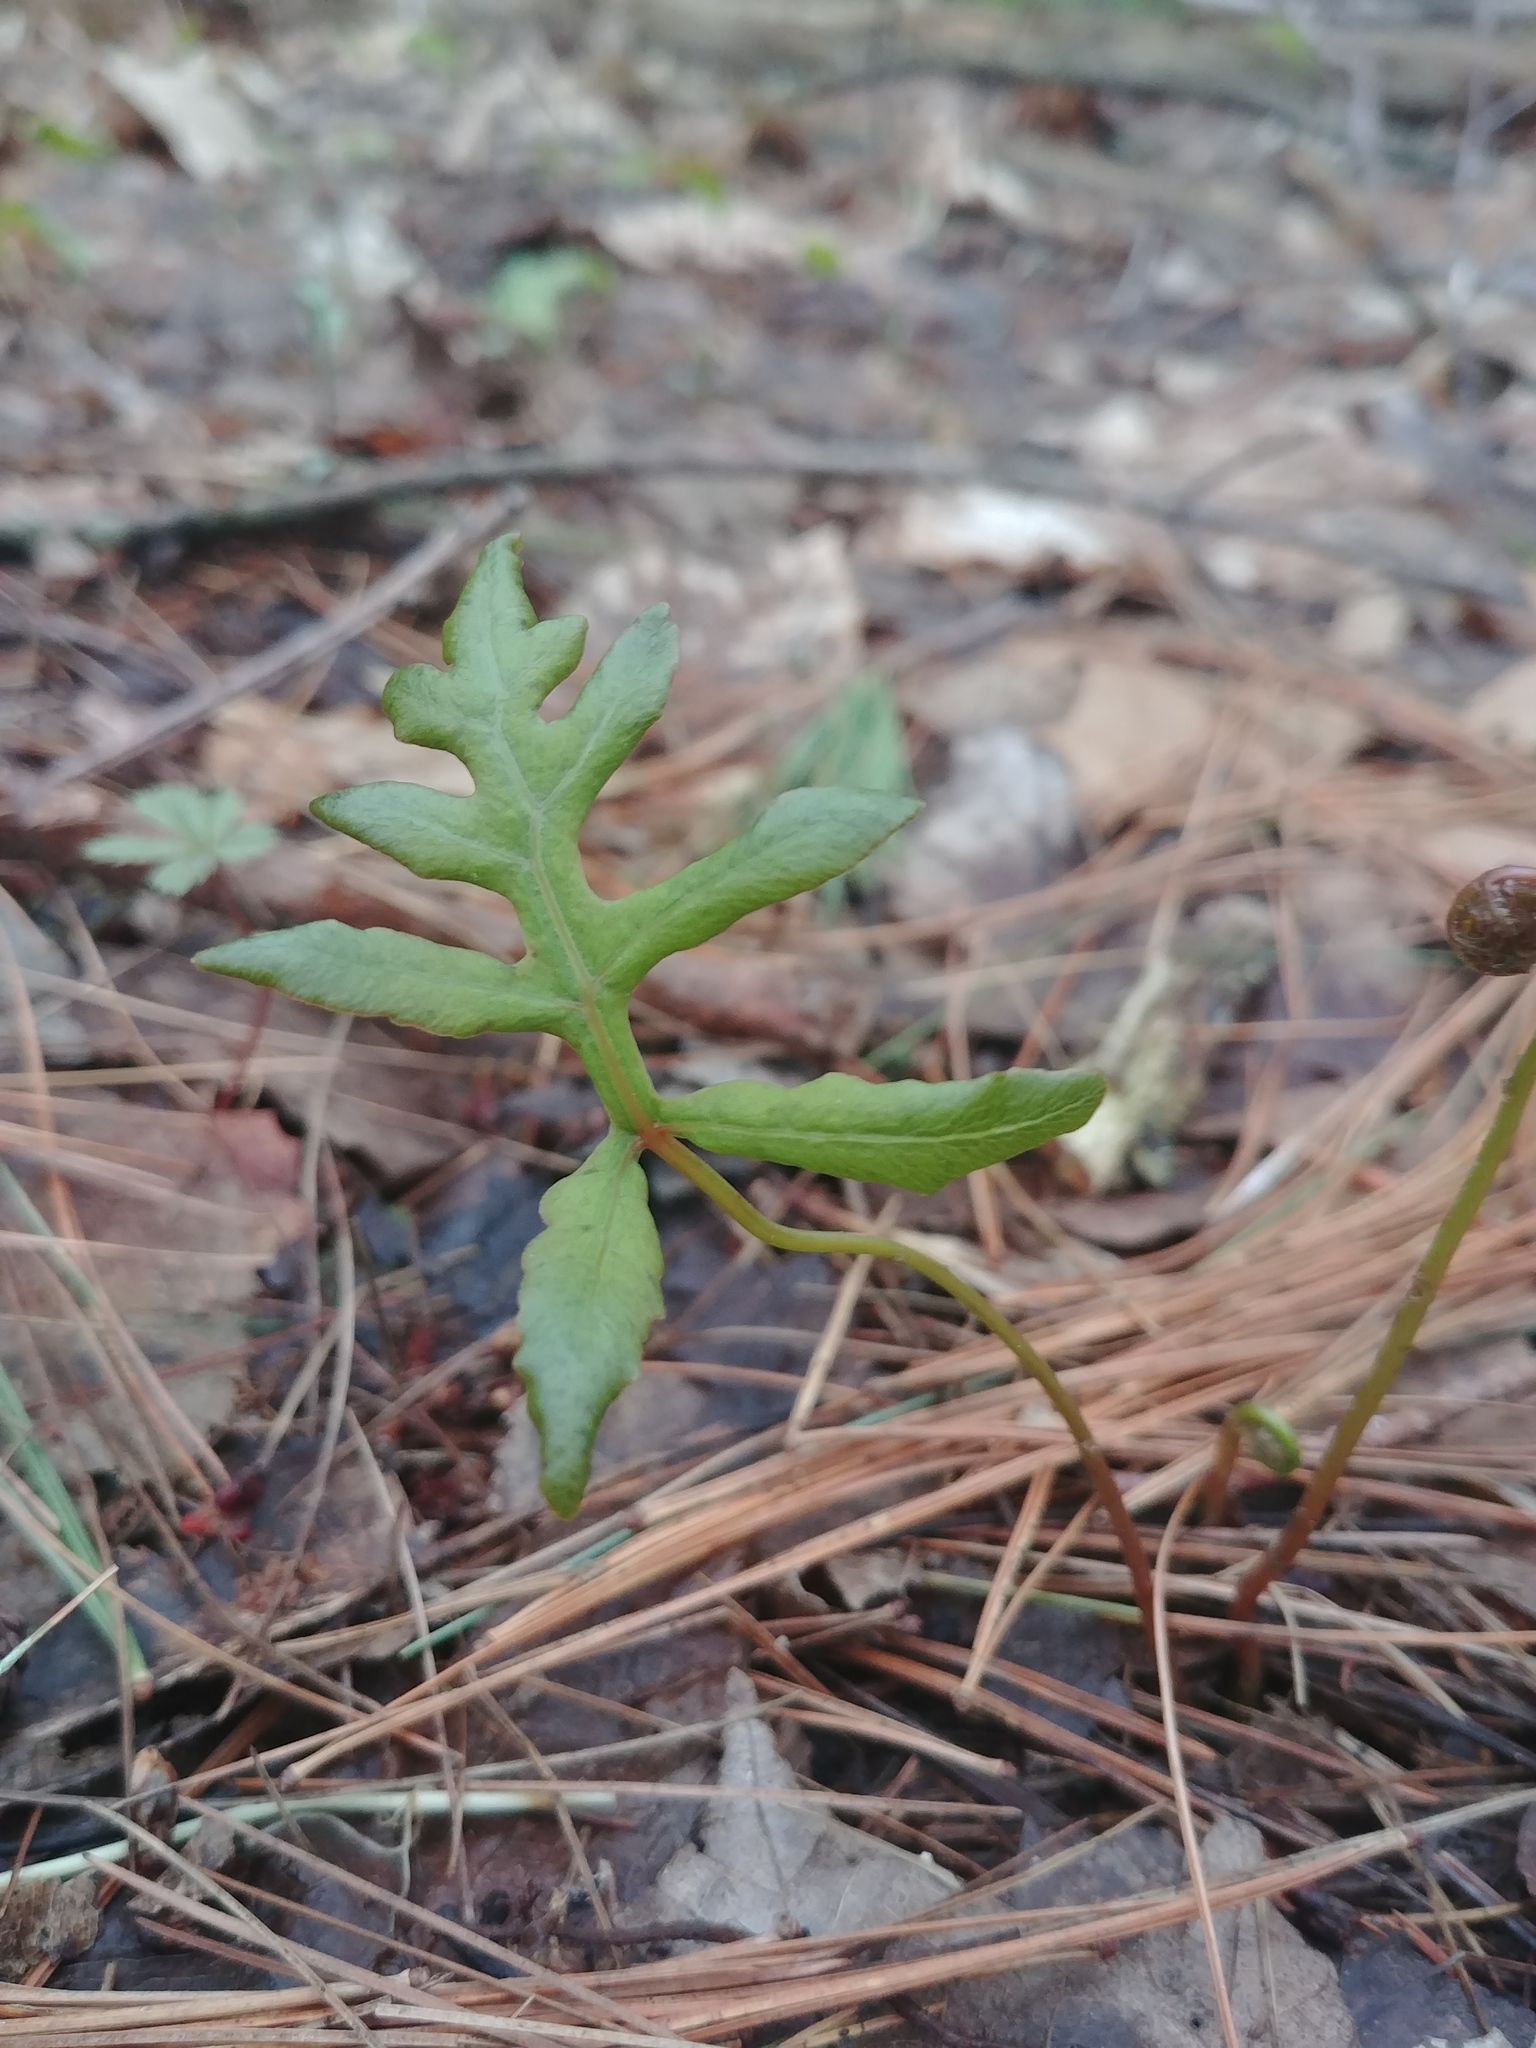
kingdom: Plantae
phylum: Tracheophyta
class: Polypodiopsida
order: Polypodiales
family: Onocleaceae
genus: Onoclea
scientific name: Onoclea sensibilis
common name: Sensitive fern
